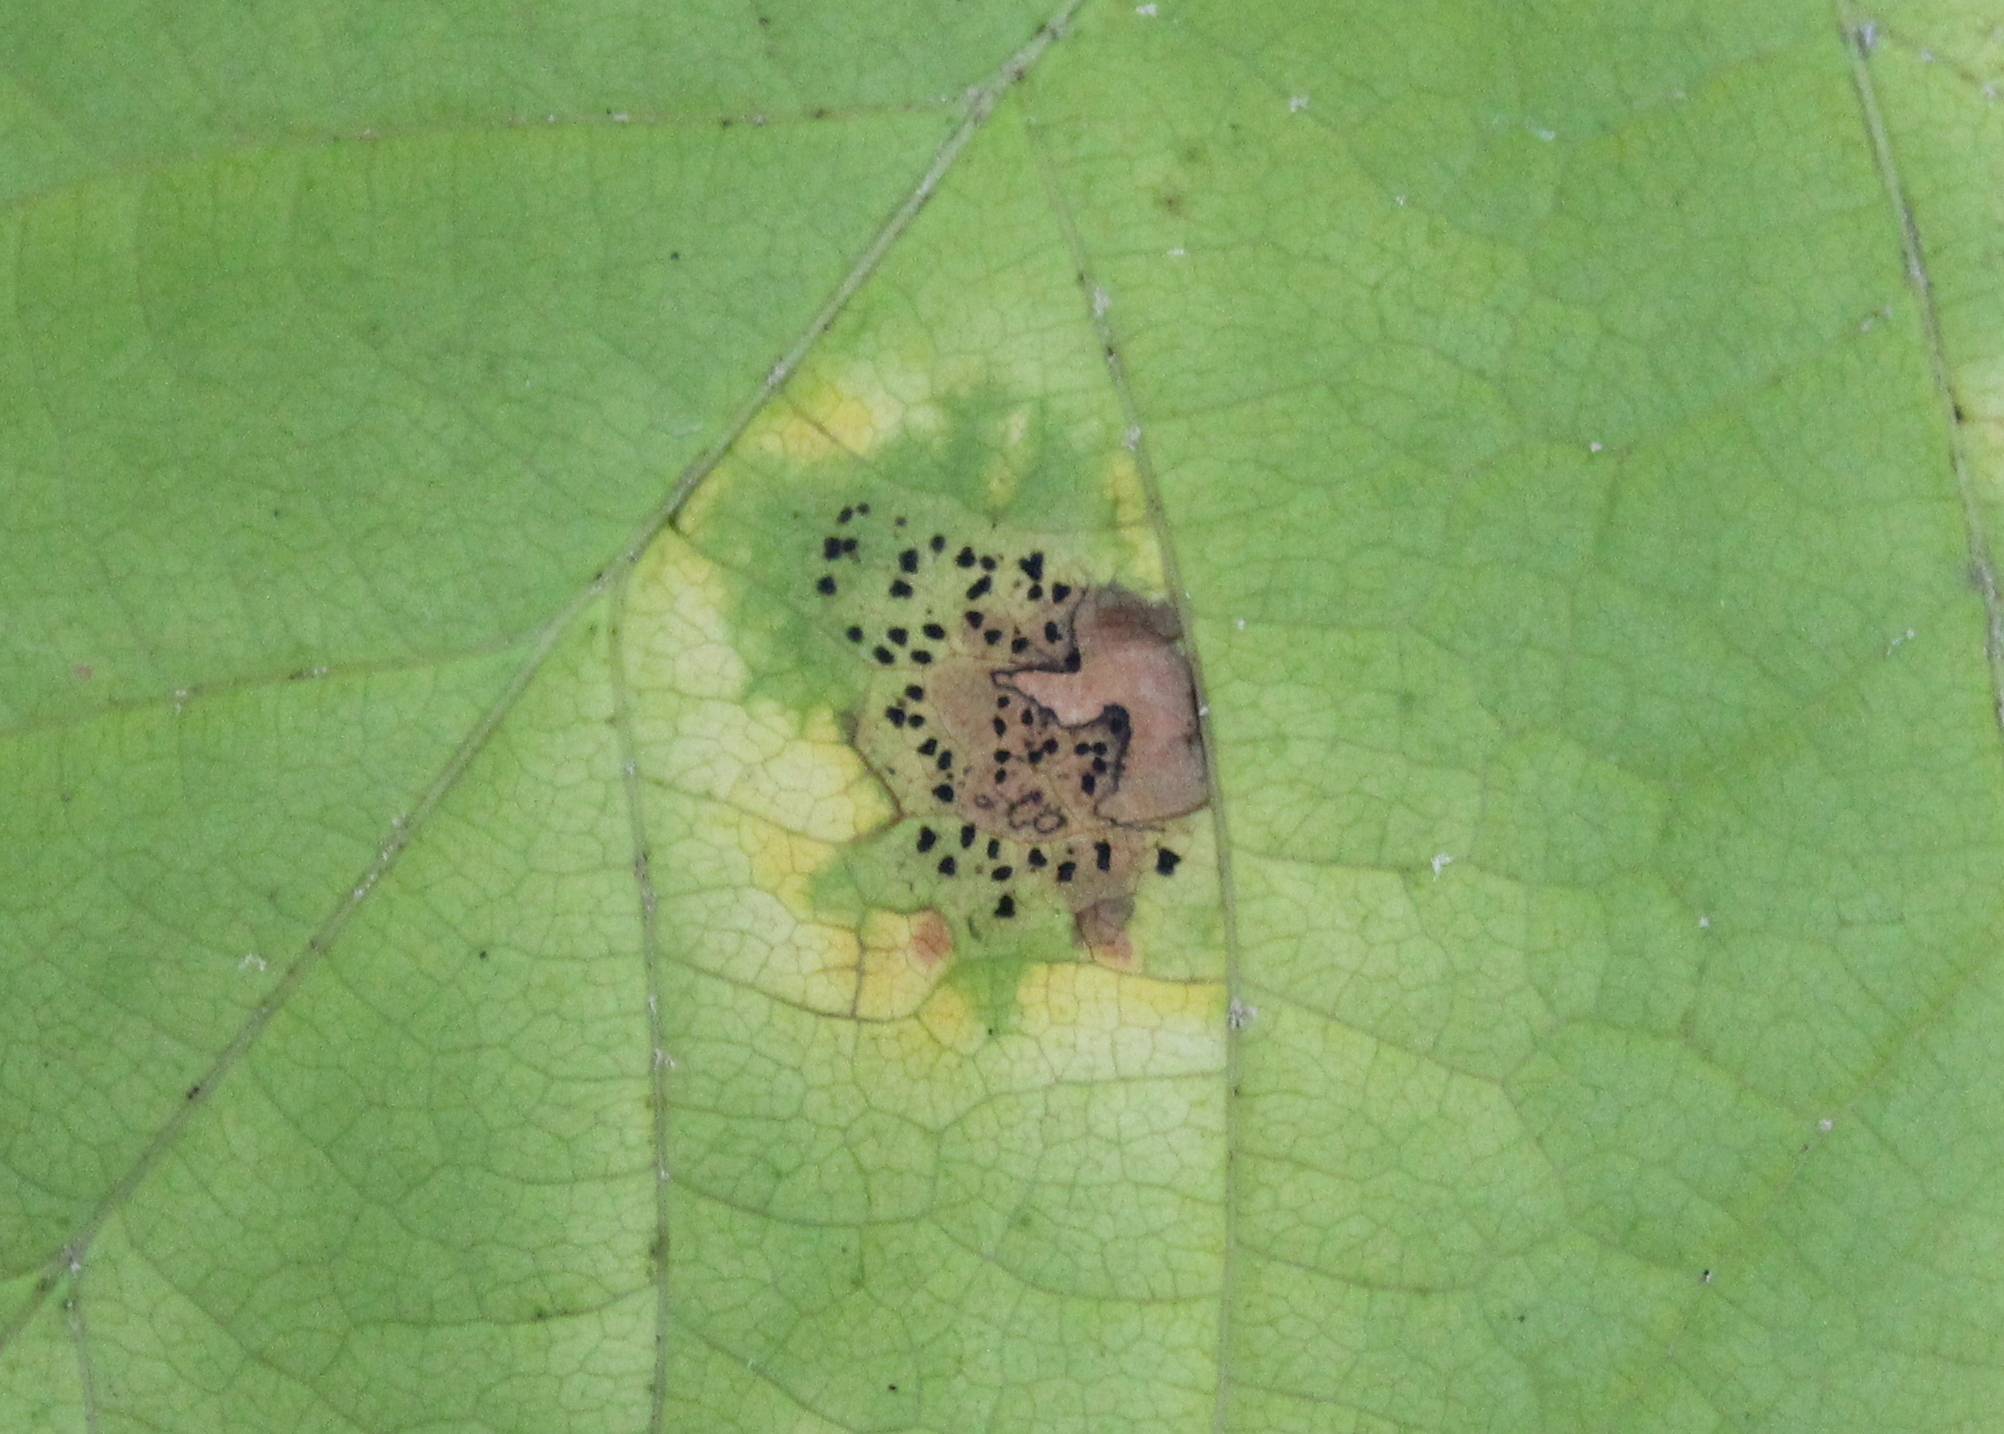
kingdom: Fungi
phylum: Ascomycota
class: Leotiomycetes
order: Rhytismatales
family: Rhytismataceae
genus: Rhytisma
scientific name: Rhytisma punctatum
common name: Speckled tar spot
